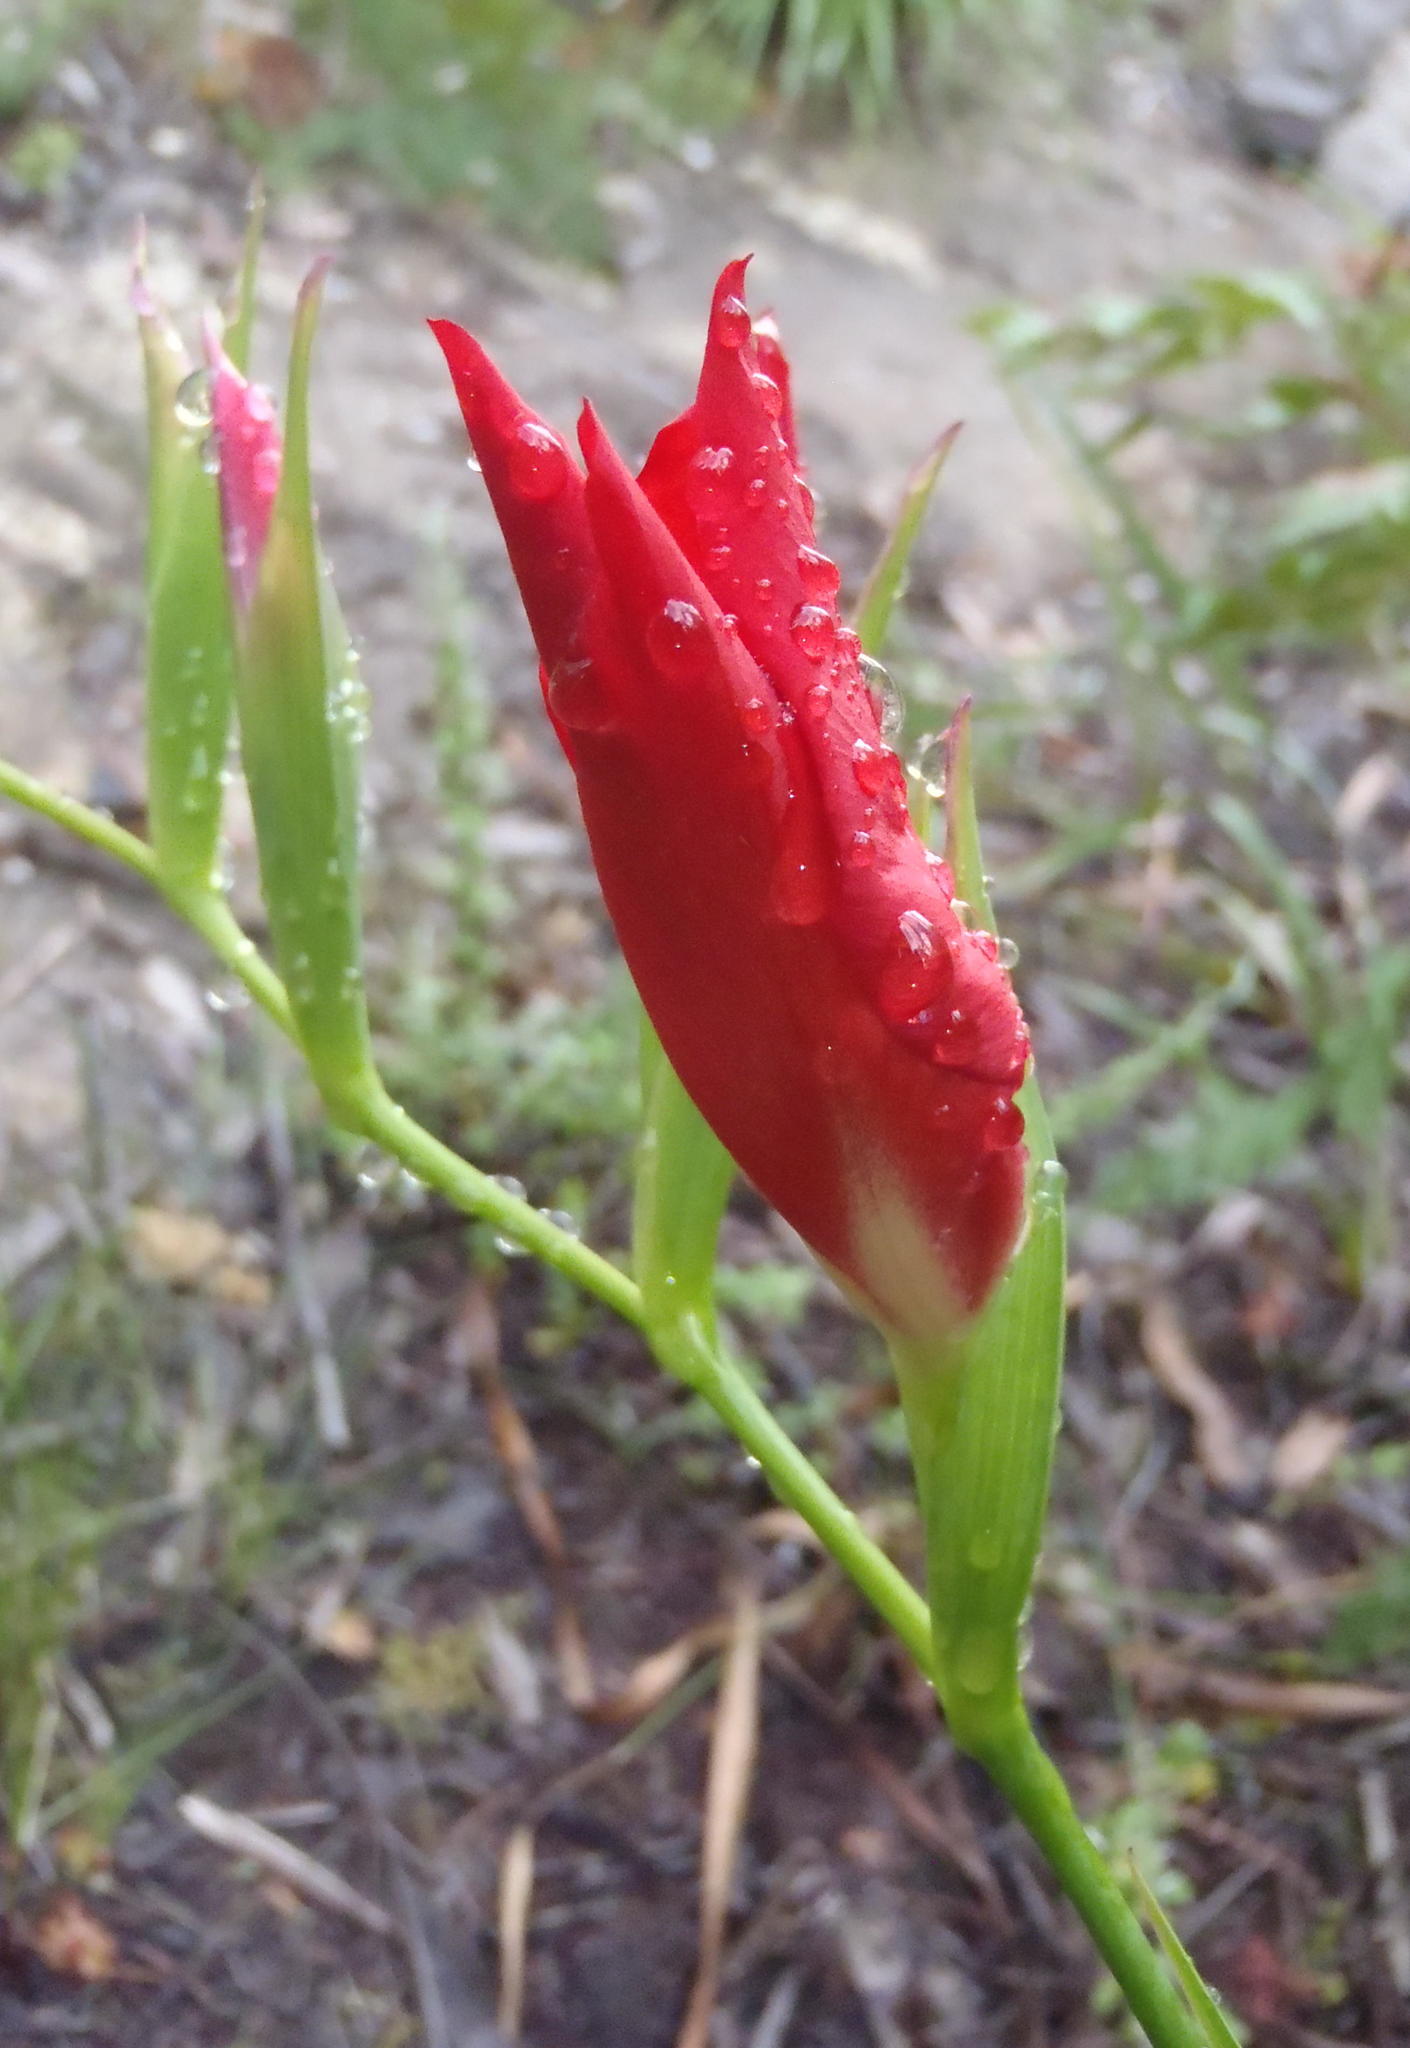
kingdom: Plantae
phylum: Tracheophyta
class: Liliopsida
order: Asparagales
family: Iridaceae
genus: Gladiolus
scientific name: Gladiolus sempervirens
